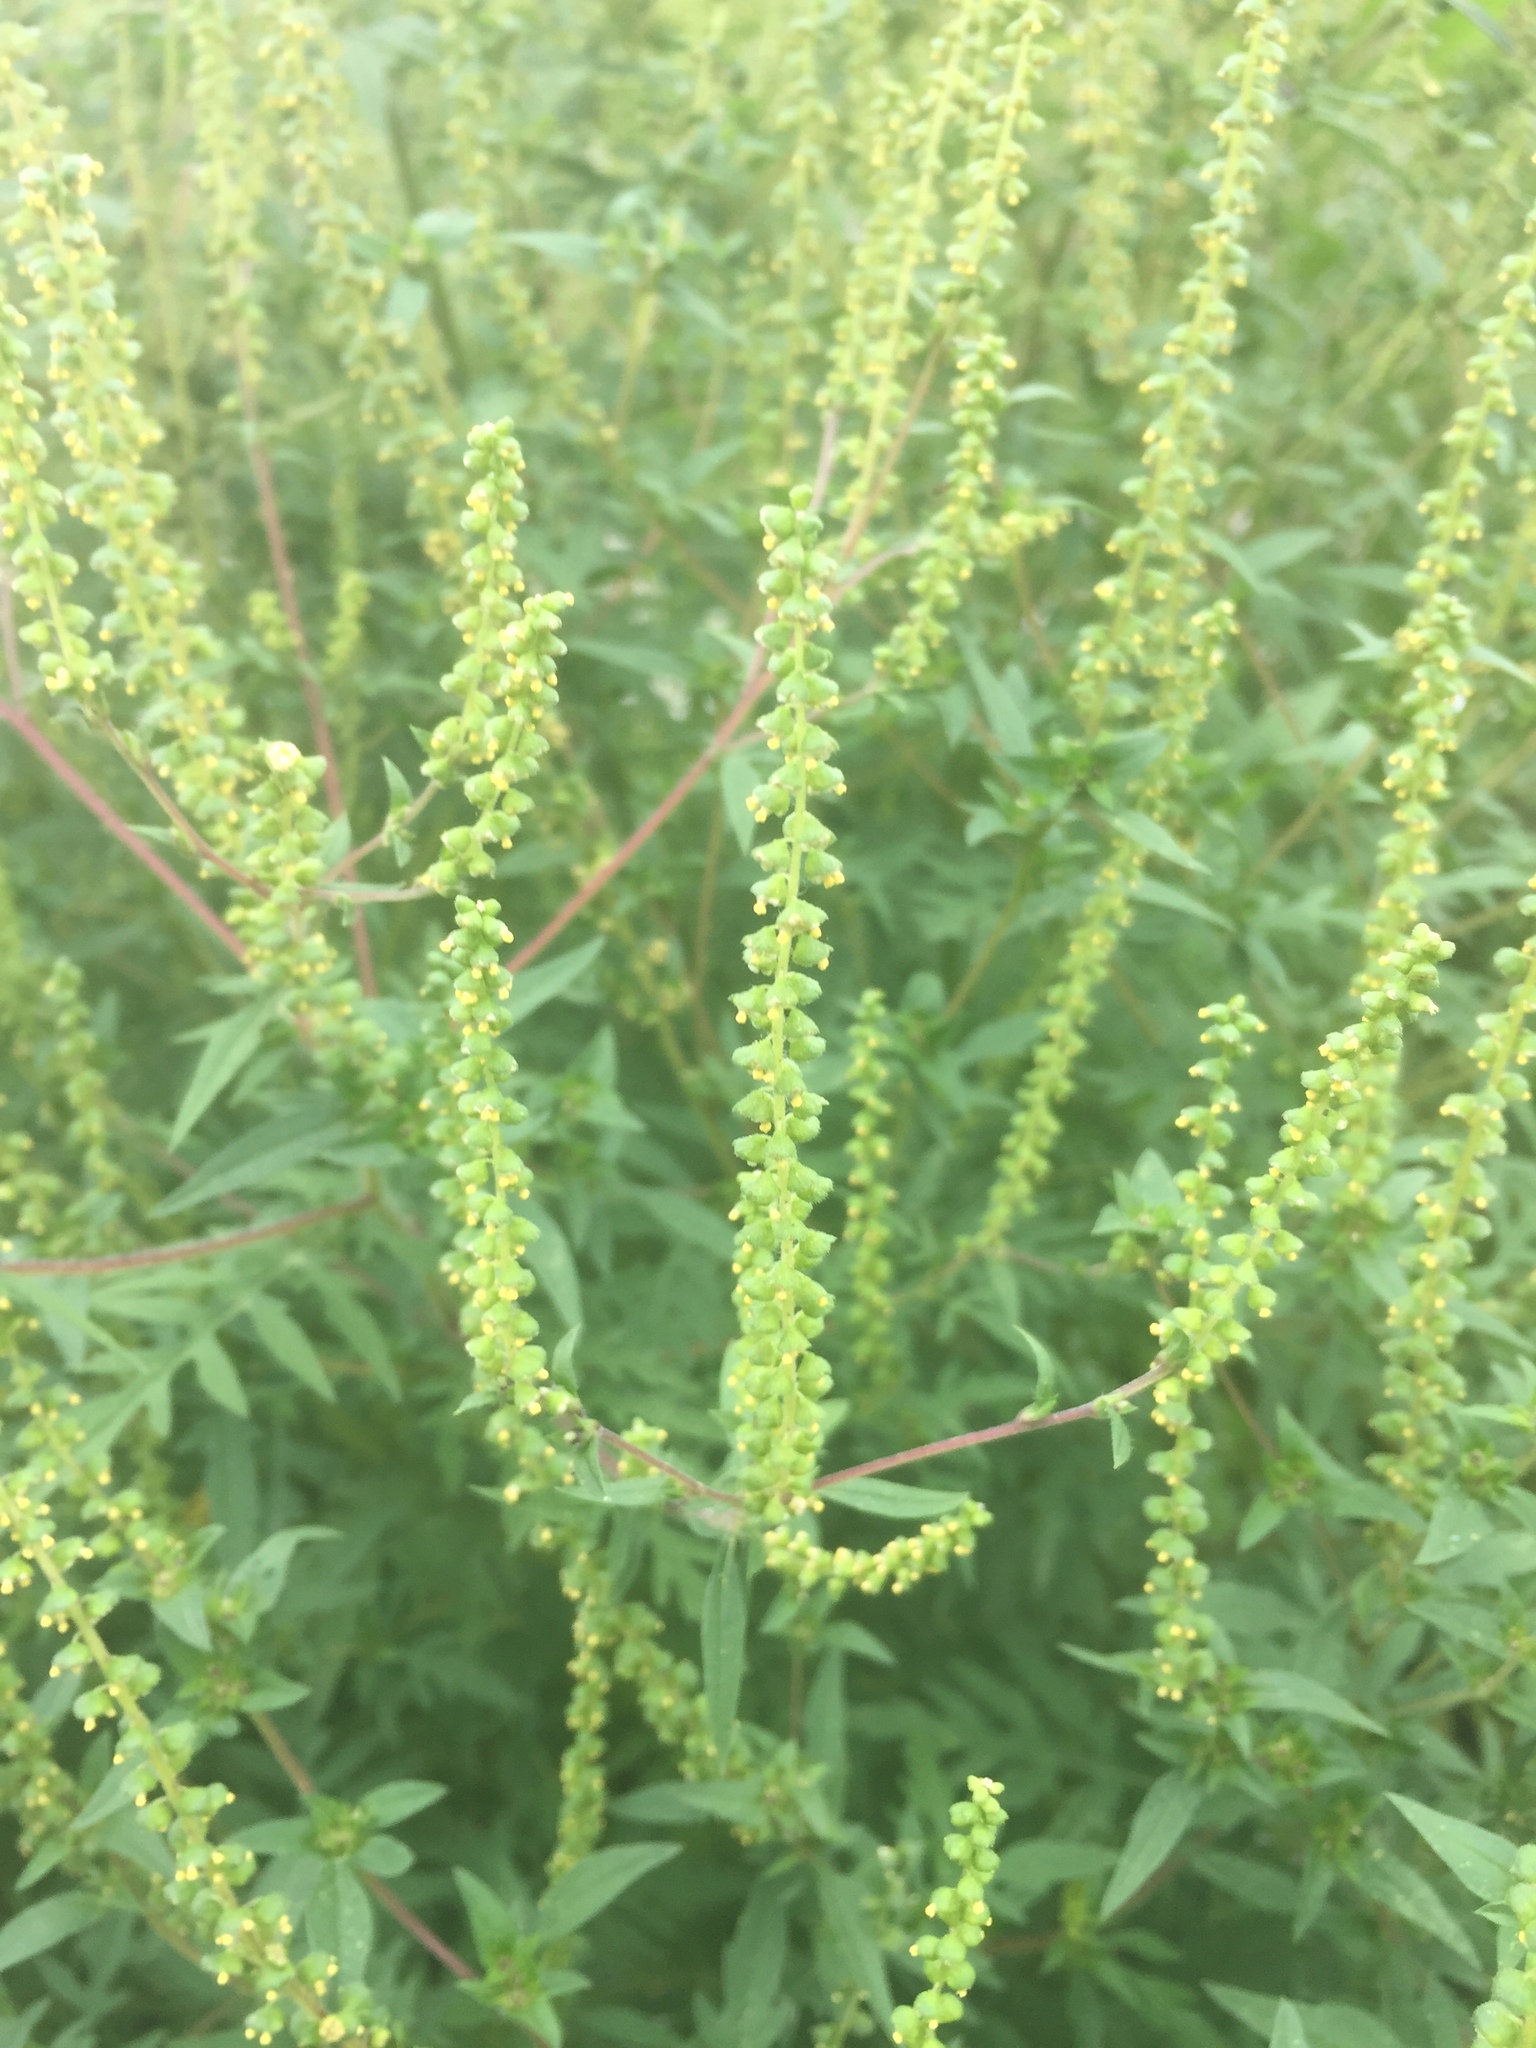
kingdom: Plantae
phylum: Tracheophyta
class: Magnoliopsida
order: Asterales
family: Asteraceae
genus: Ambrosia
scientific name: Ambrosia artemisiifolia
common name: Annual ragweed
